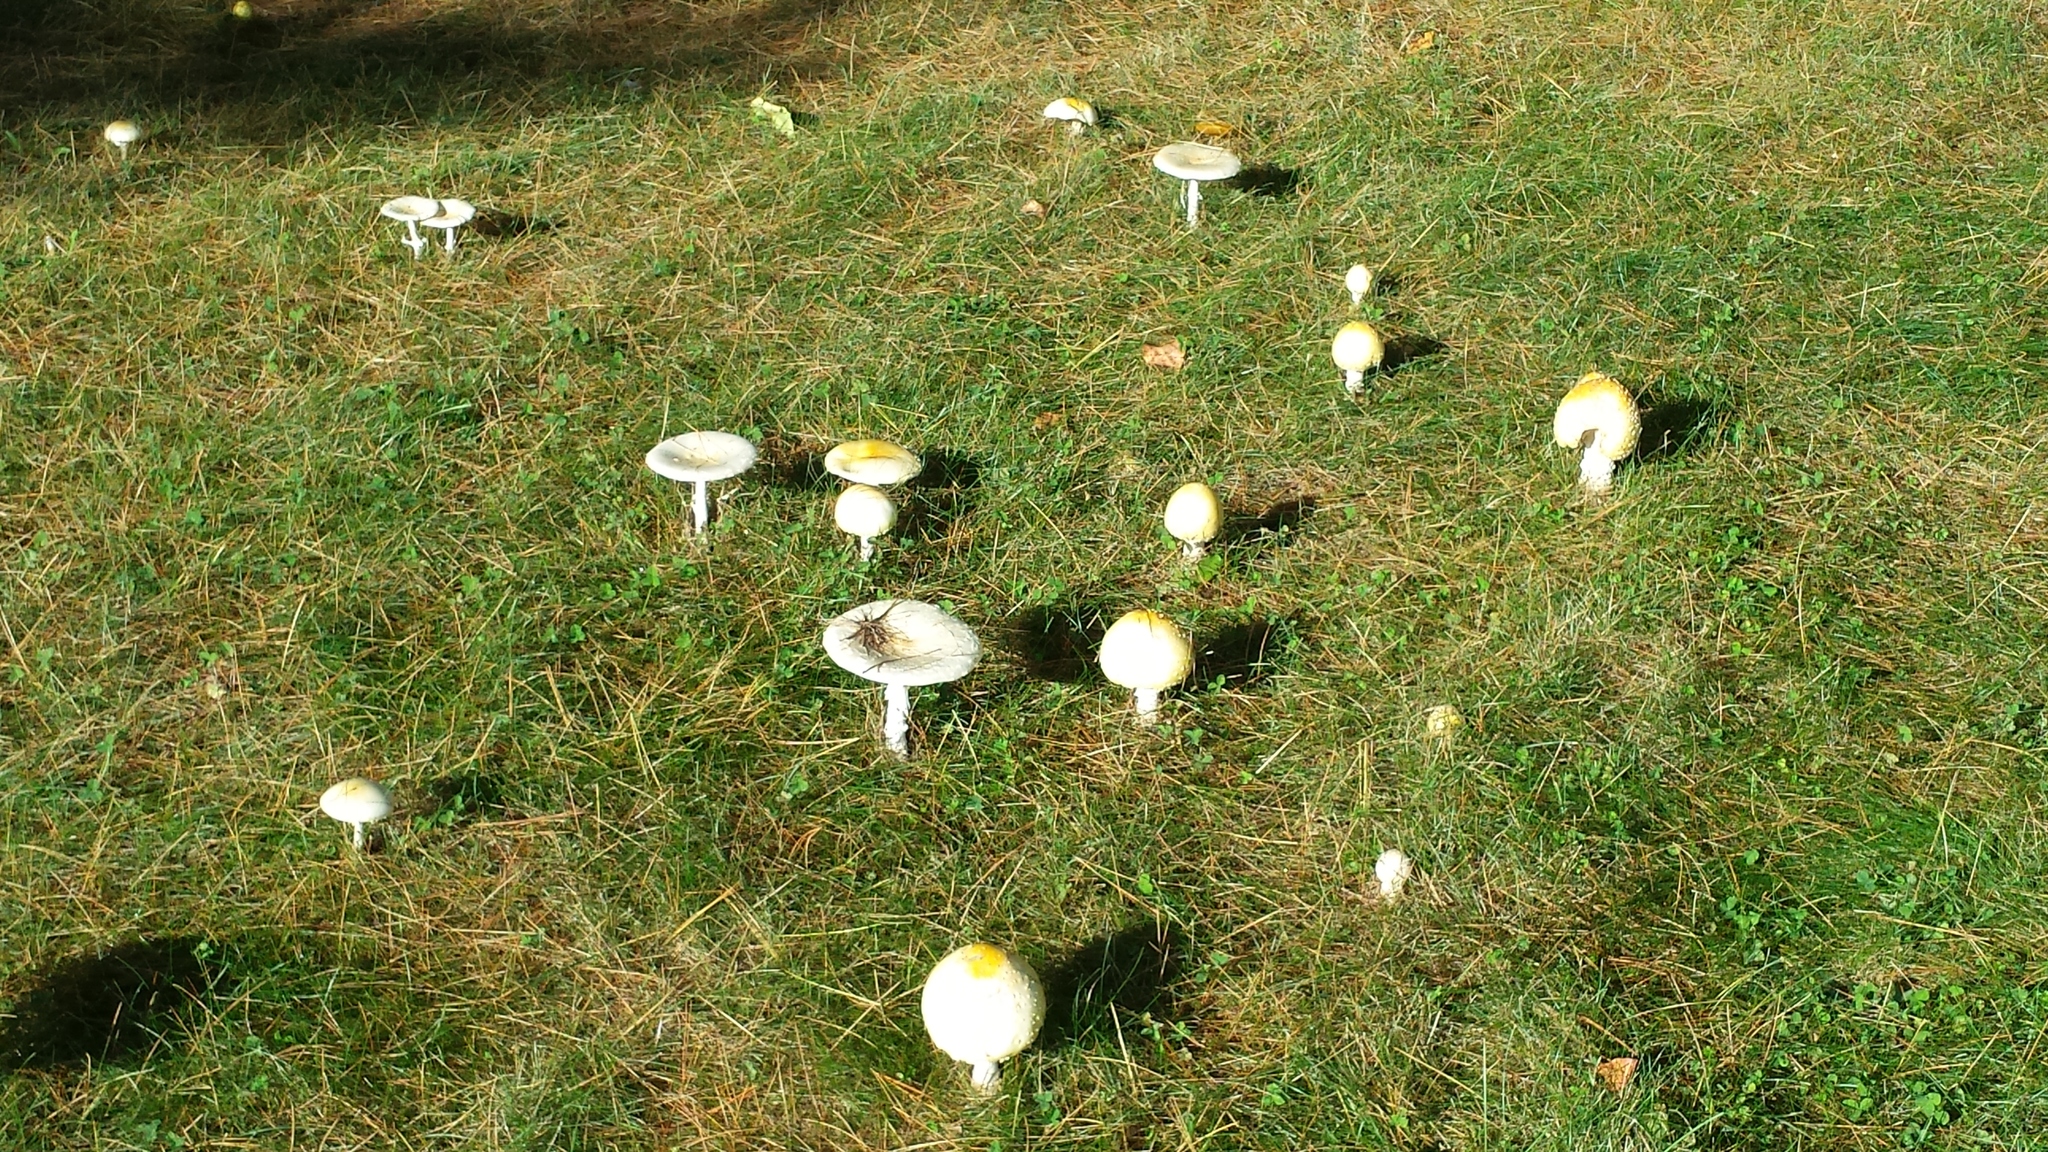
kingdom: Fungi
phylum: Basidiomycota
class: Agaricomycetes
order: Agaricales
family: Amanitaceae
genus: Amanita
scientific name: Amanita muscaria
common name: Fly agaric
